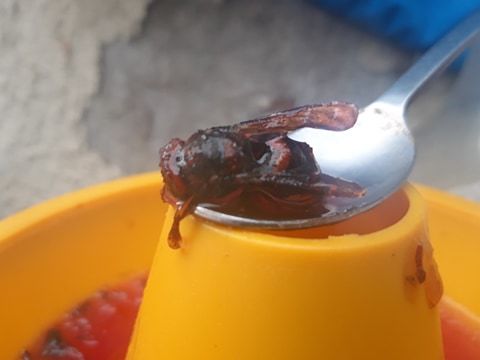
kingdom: Animalia
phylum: Arthropoda
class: Insecta
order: Hymenoptera
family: Vespidae
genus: Vespa
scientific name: Vespa crabro
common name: Hornet
